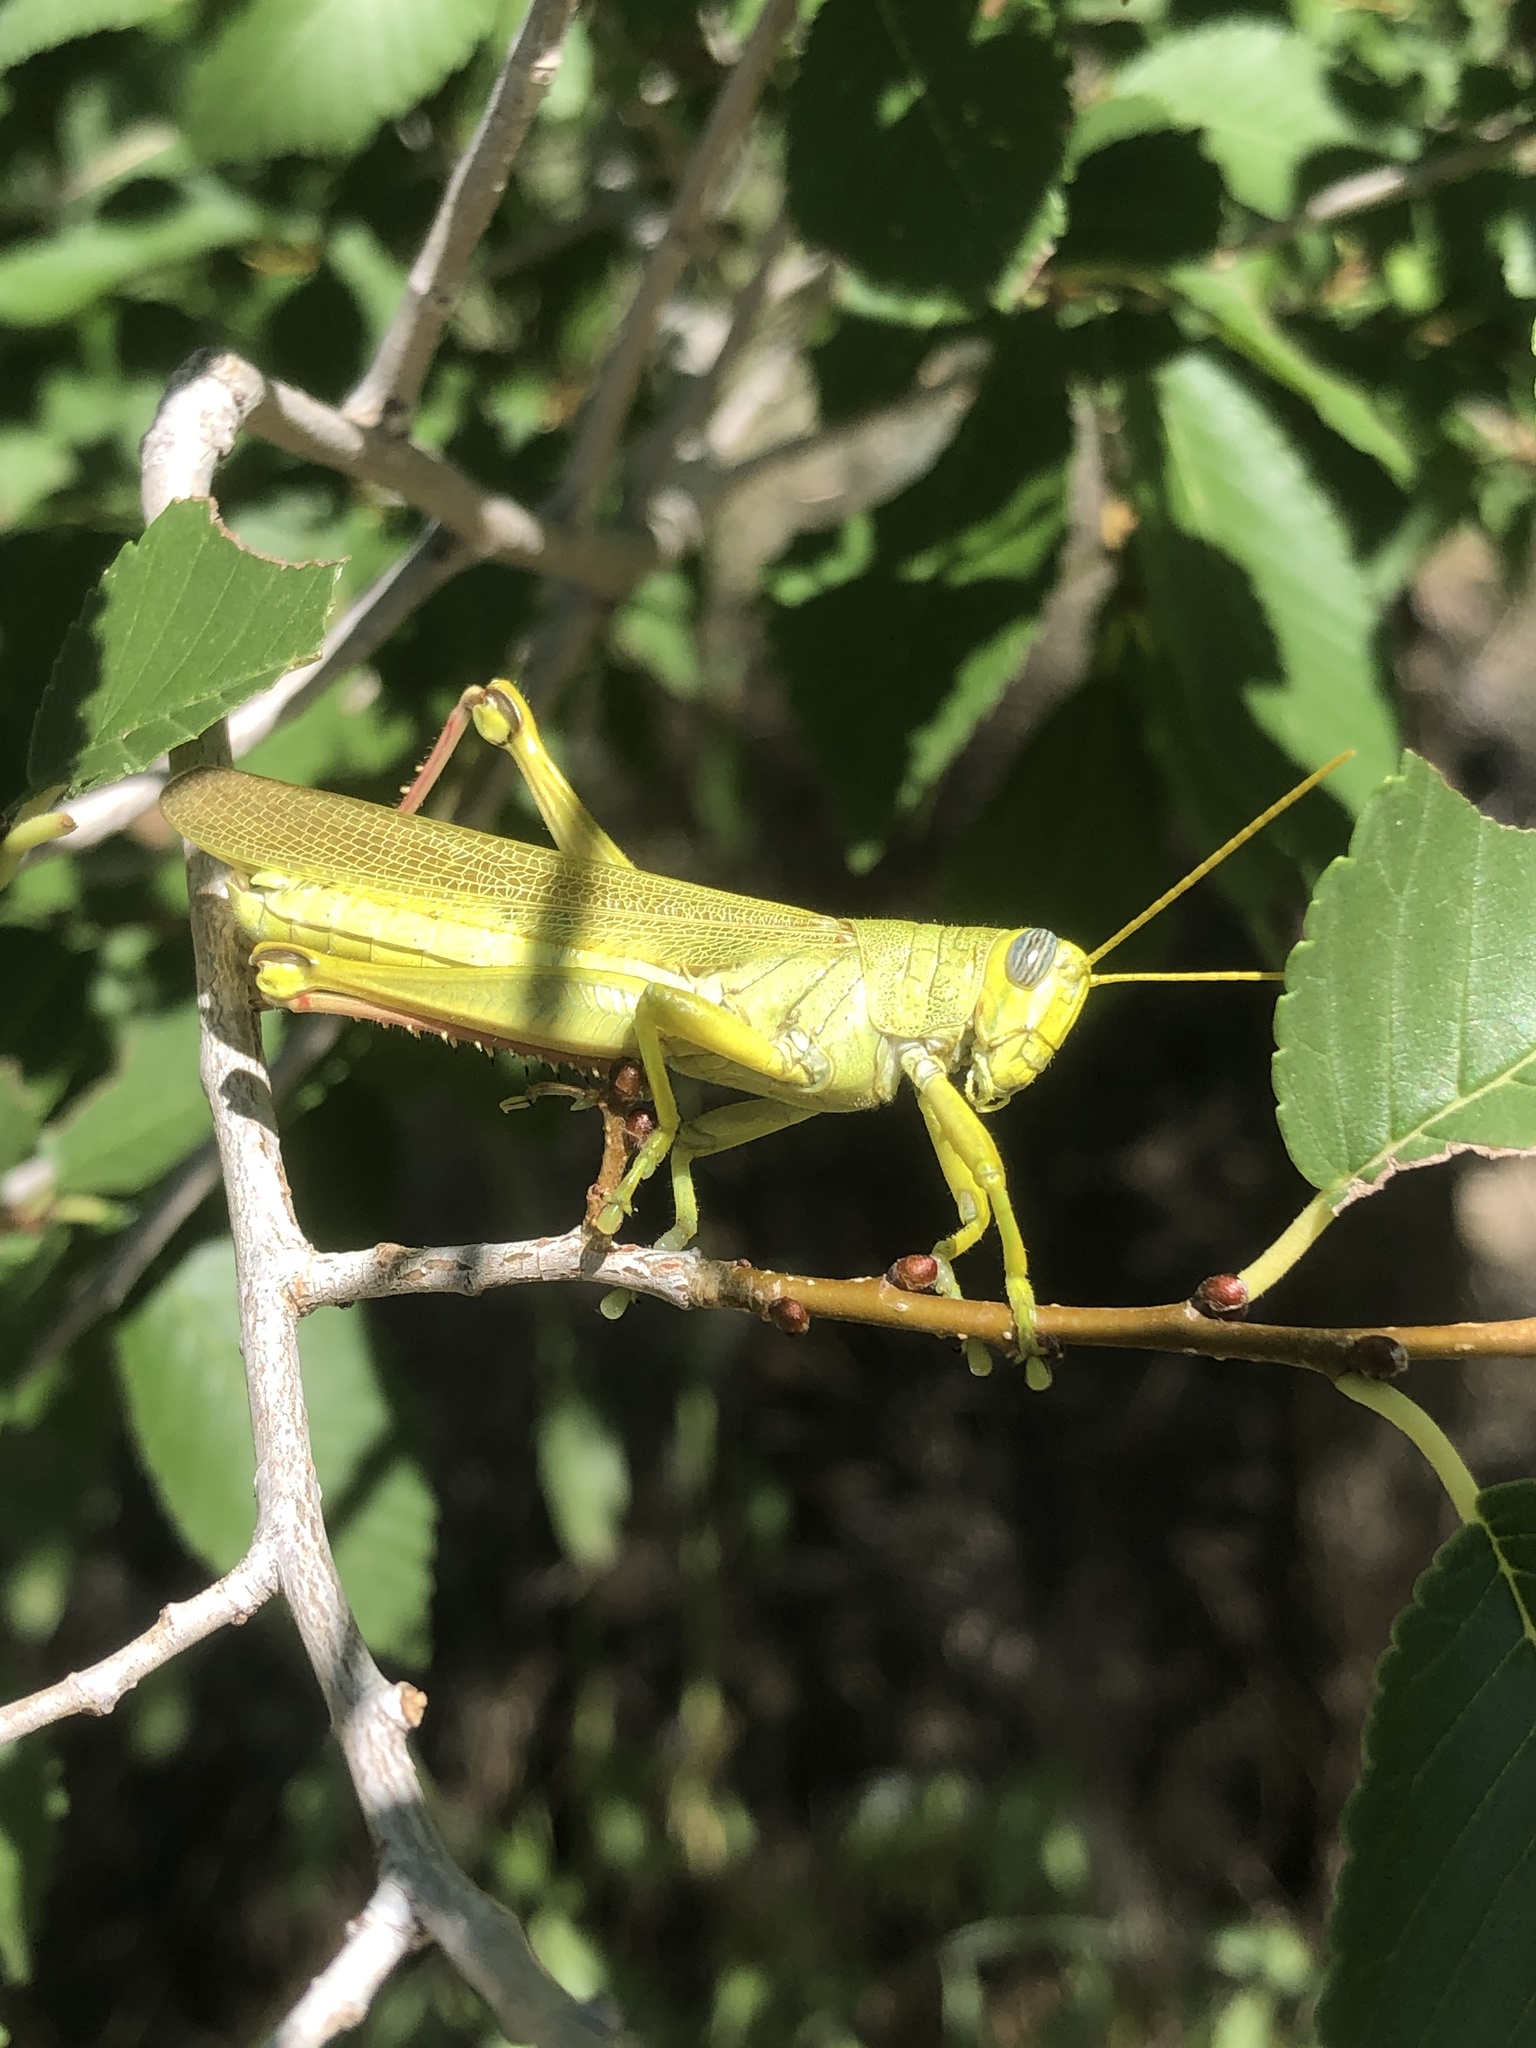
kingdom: Animalia
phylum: Arthropoda
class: Insecta
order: Orthoptera
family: Acrididae
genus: Schistocerca
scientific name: Schistocerca shoshone
